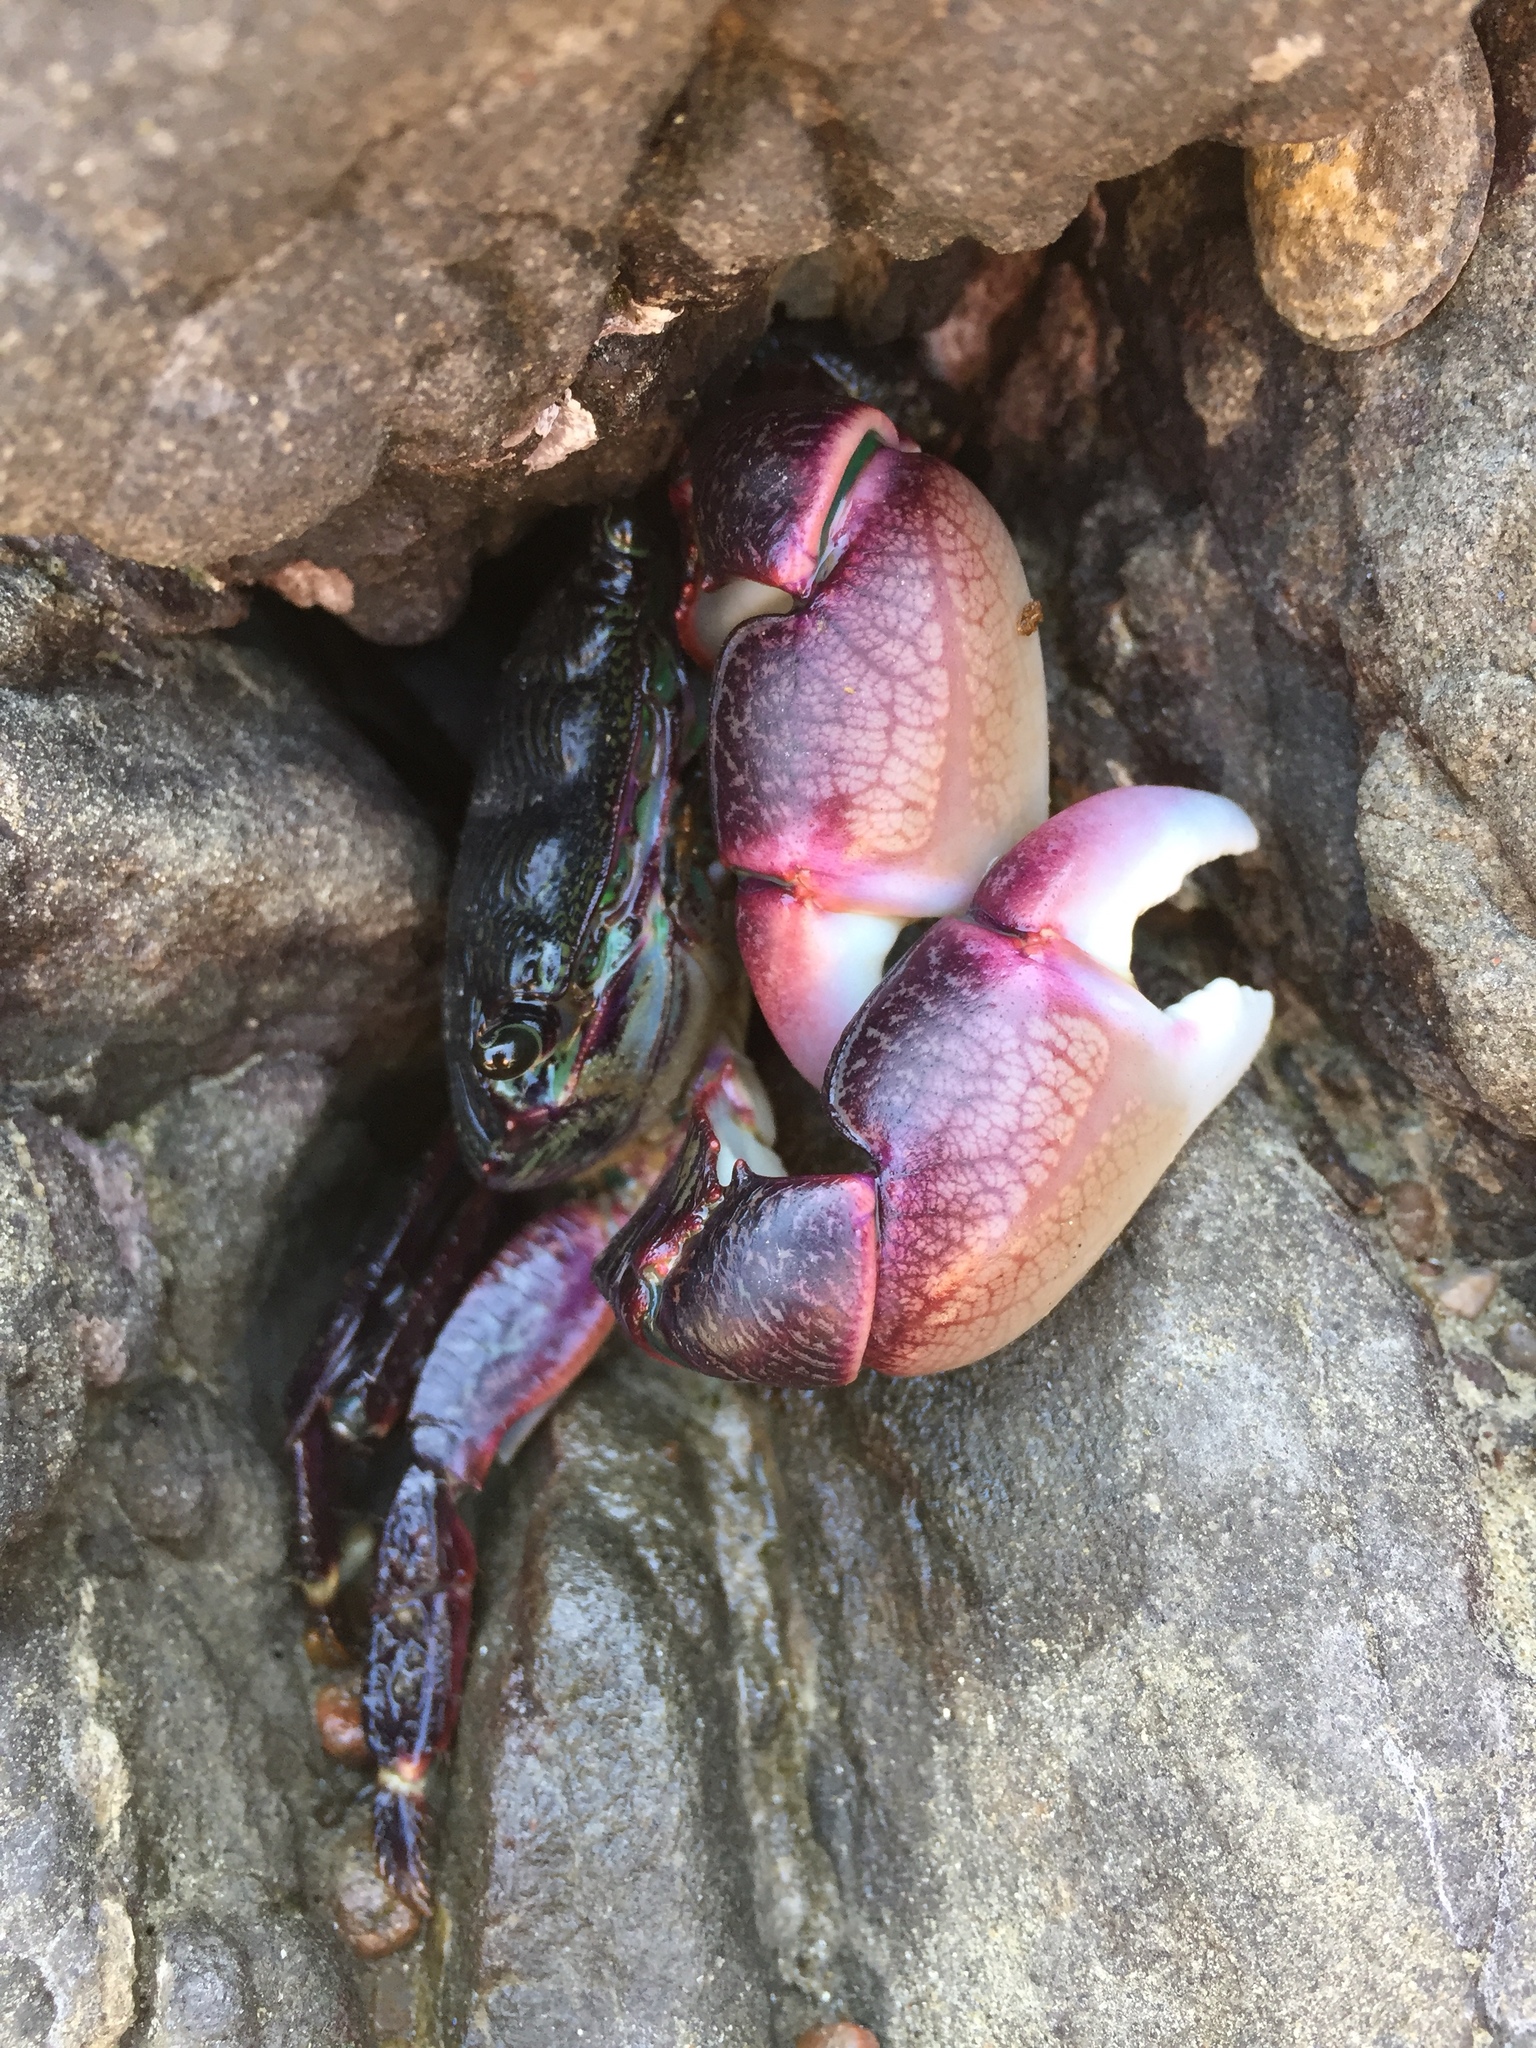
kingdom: Animalia
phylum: Arthropoda
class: Malacostraca
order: Decapoda
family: Grapsidae
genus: Pachygrapsus
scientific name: Pachygrapsus crassipes
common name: Striped shore crab
